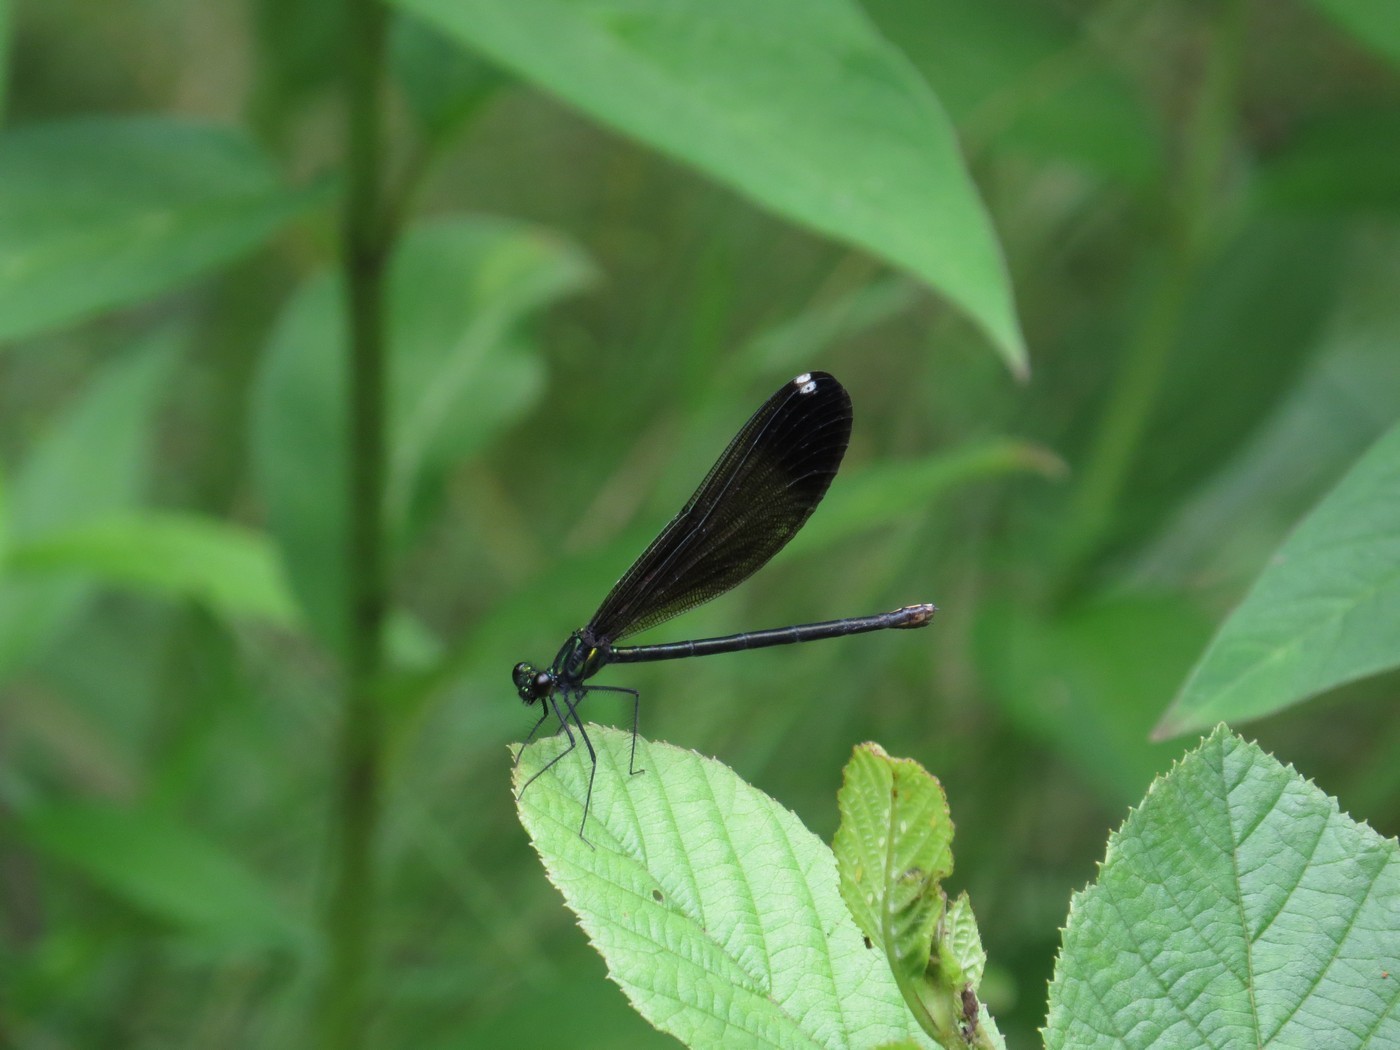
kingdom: Animalia
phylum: Arthropoda
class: Insecta
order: Odonata
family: Calopterygidae
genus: Calopteryx
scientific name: Calopteryx maculata
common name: Ebony jewelwing
